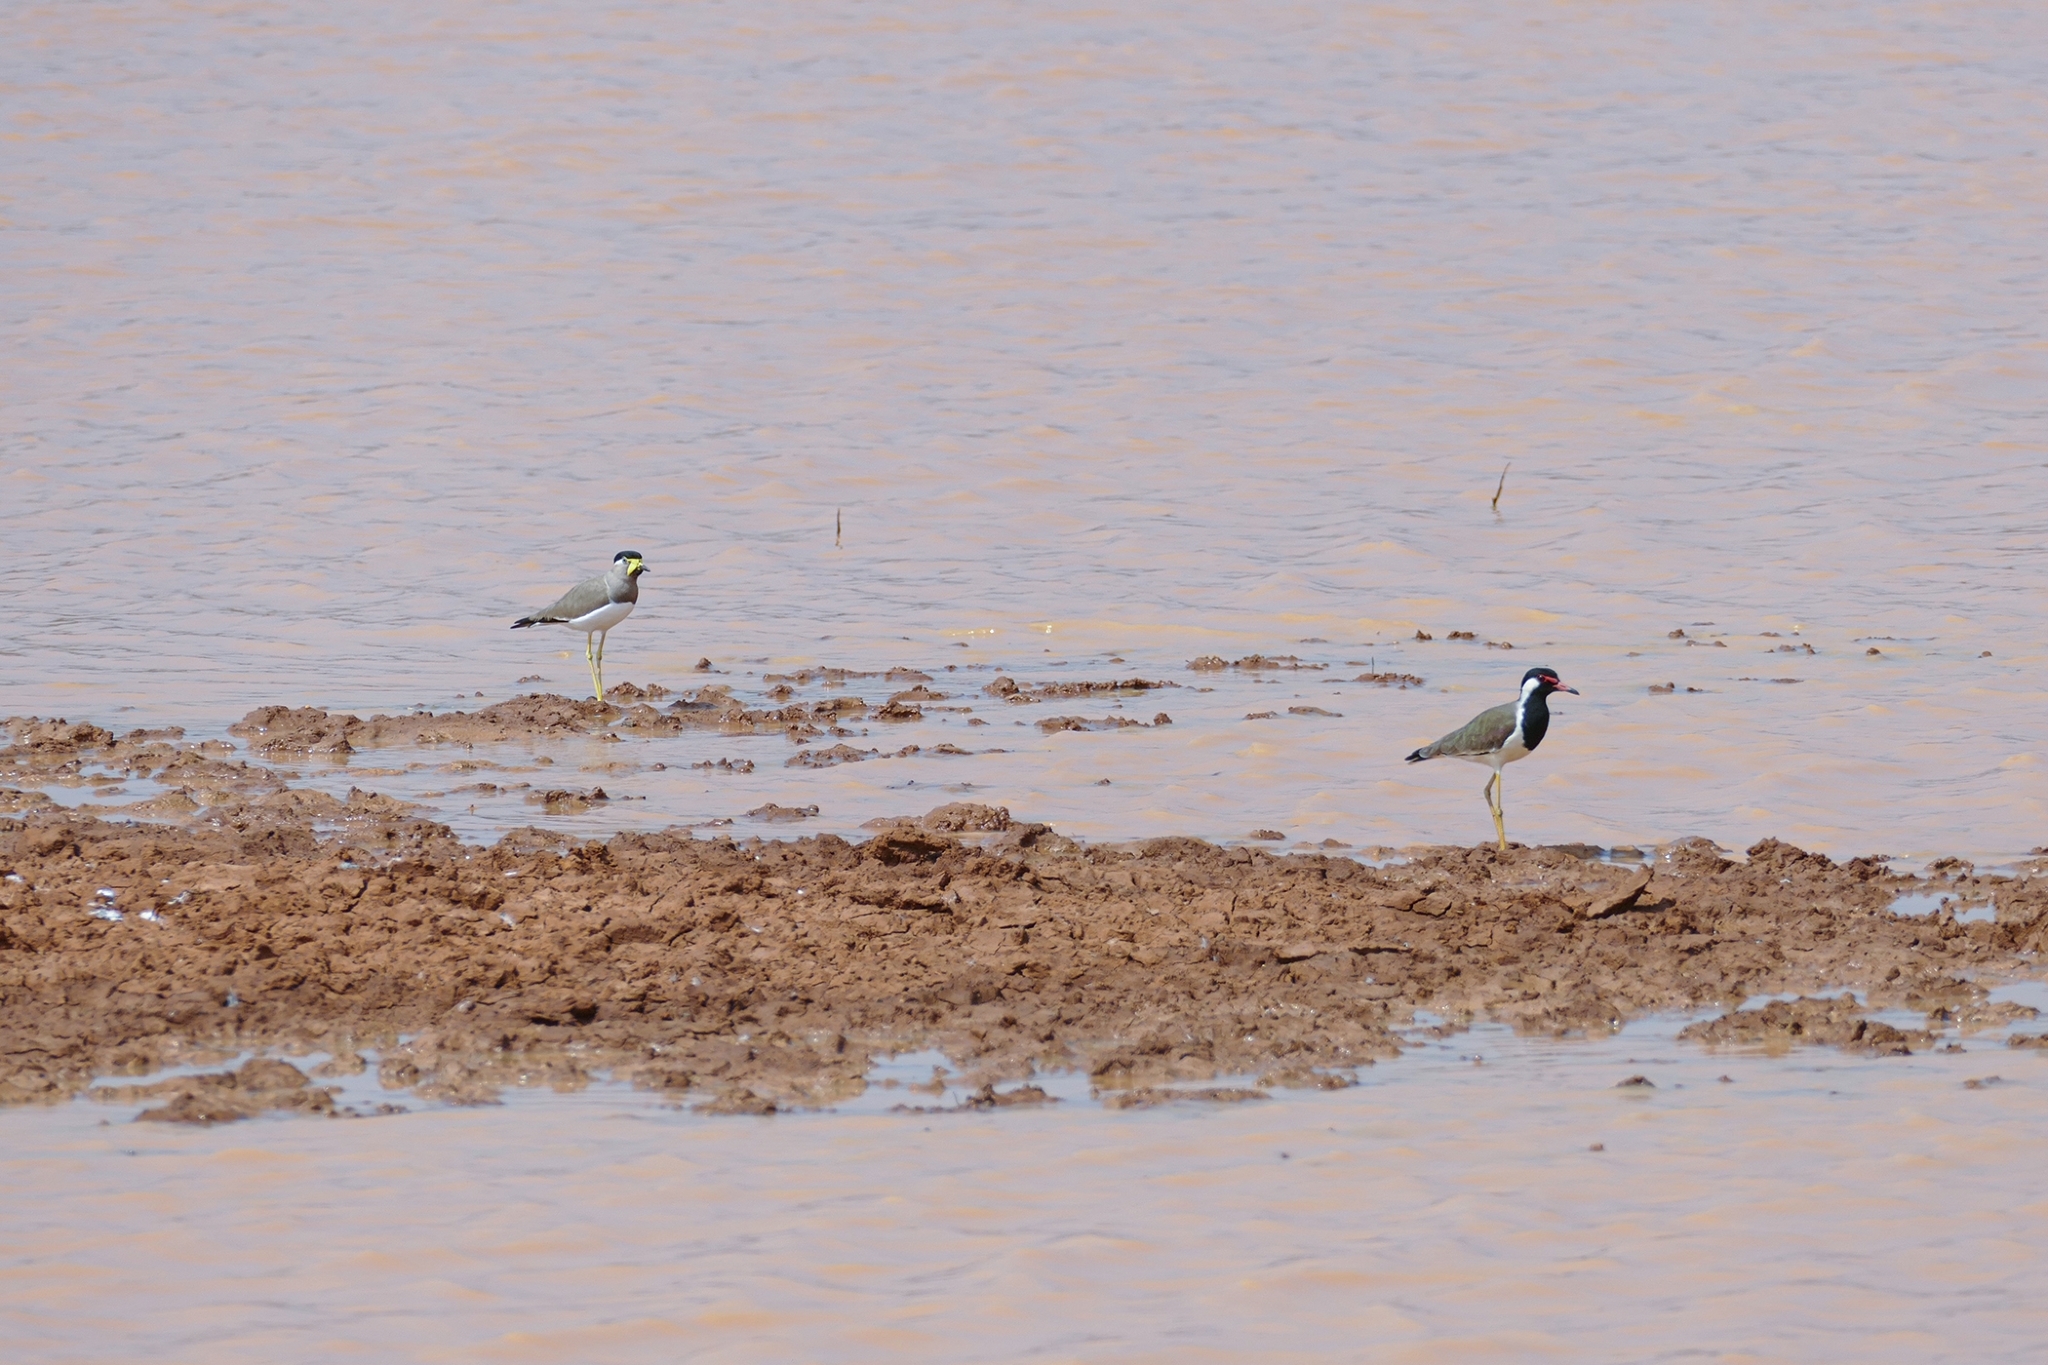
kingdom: Animalia
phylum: Chordata
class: Aves
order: Charadriiformes
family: Charadriidae
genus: Vanellus
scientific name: Vanellus indicus
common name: Red-wattled lapwing
